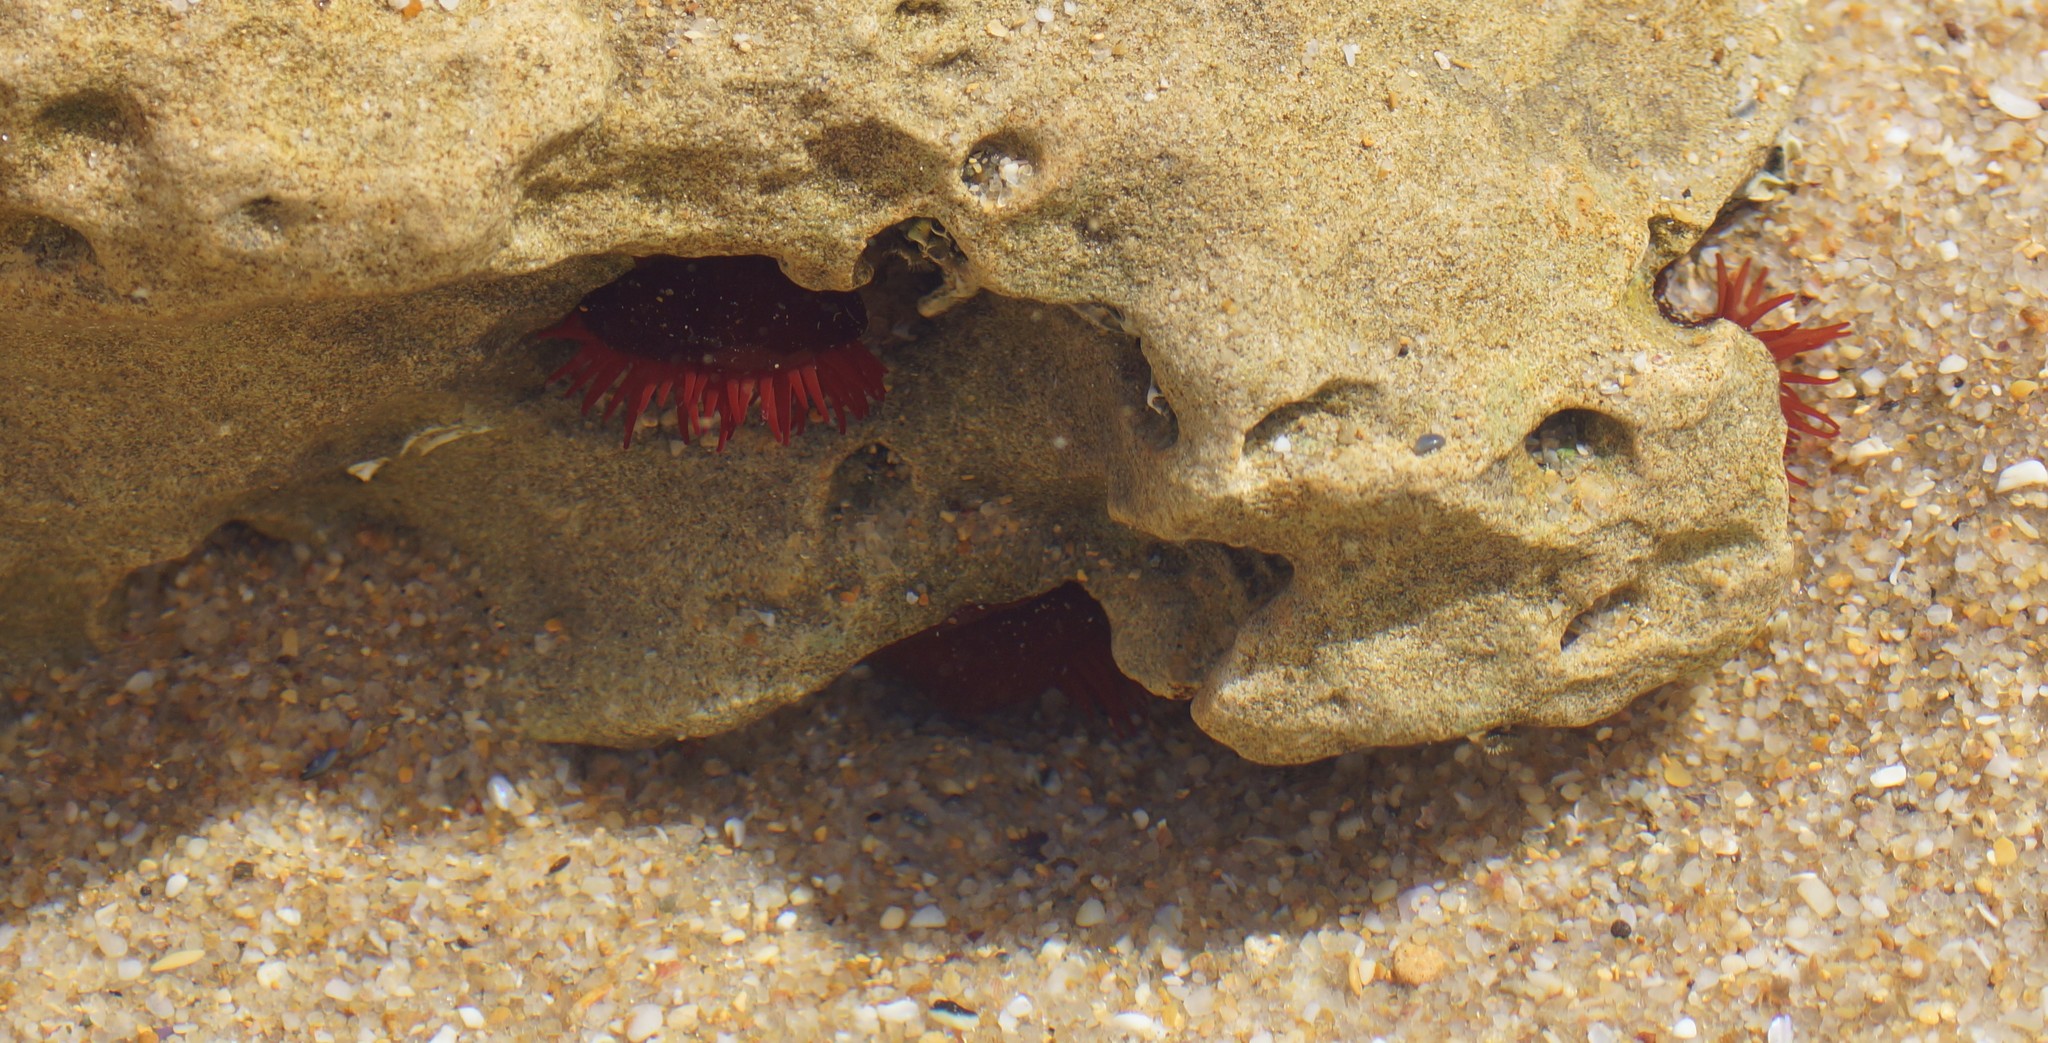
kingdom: Animalia
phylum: Cnidaria
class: Anthozoa
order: Actiniaria
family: Actiniidae
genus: Actinia
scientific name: Actinia tenebrosa
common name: Waratah anemone
